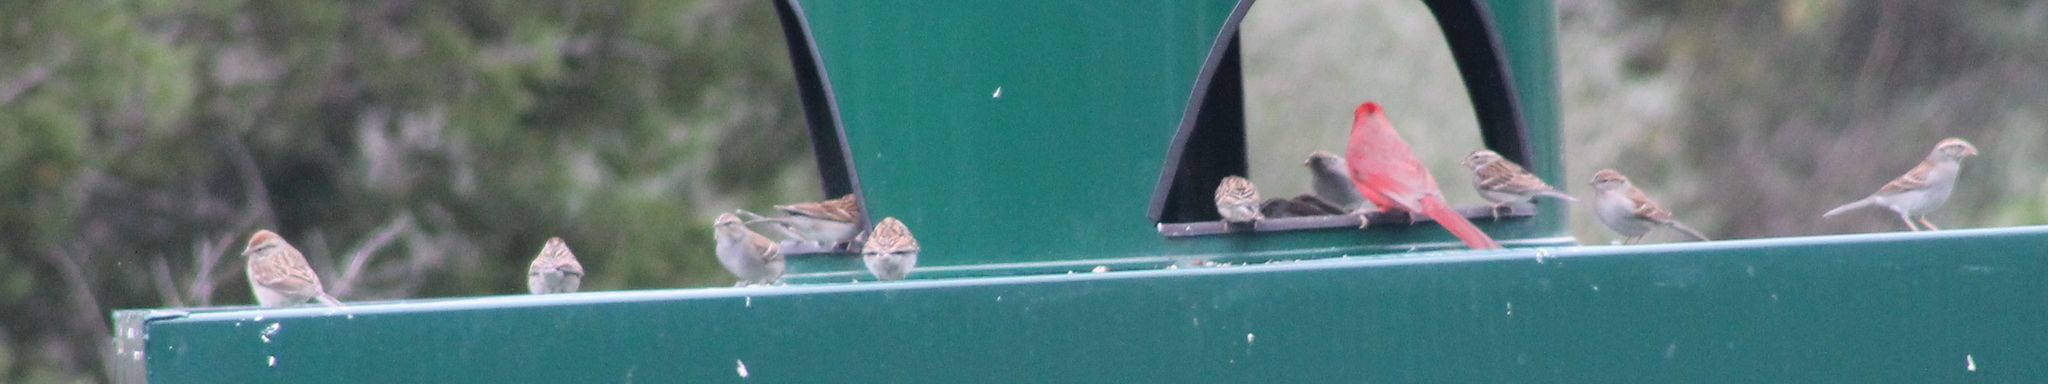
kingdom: Animalia
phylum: Chordata
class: Aves
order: Passeriformes
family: Passerellidae
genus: Spizella
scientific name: Spizella passerina
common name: Chipping sparrow
